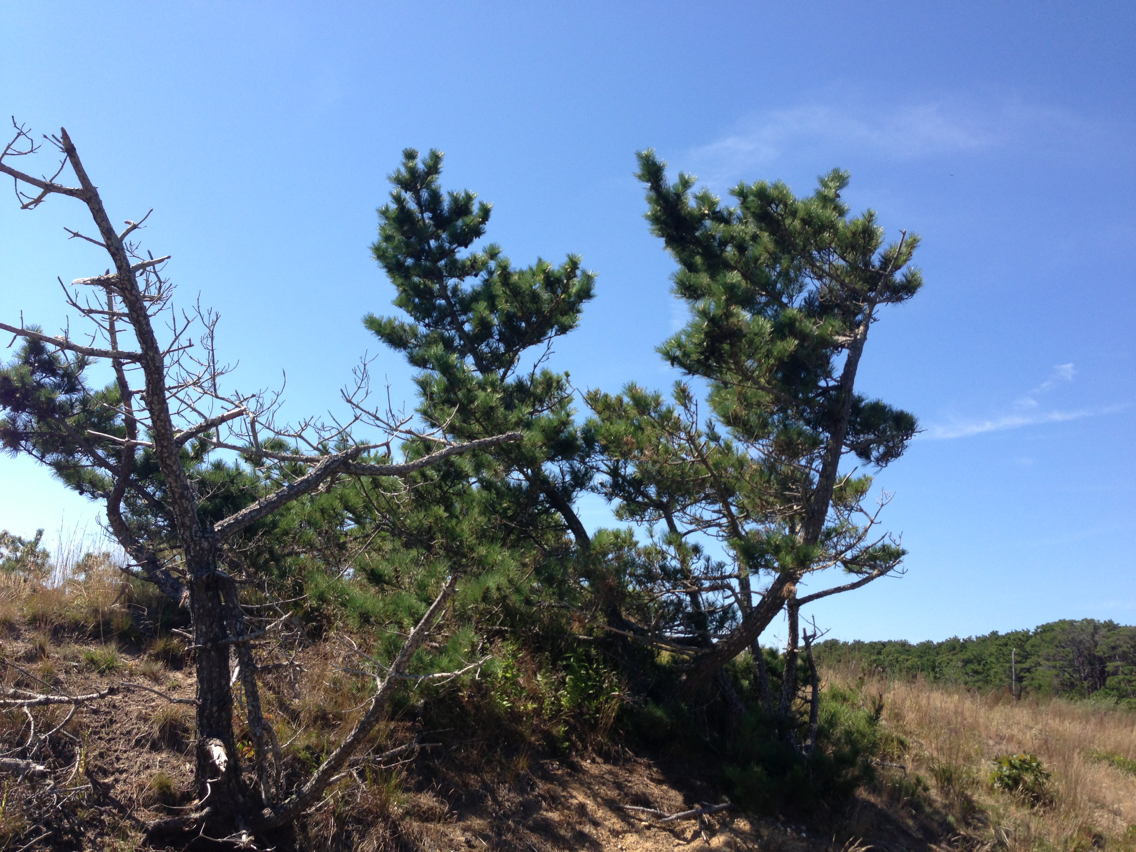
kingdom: Plantae
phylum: Tracheophyta
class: Pinopsida
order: Pinales
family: Pinaceae
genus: Pinus
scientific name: Pinus rigida
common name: Pitch pine
